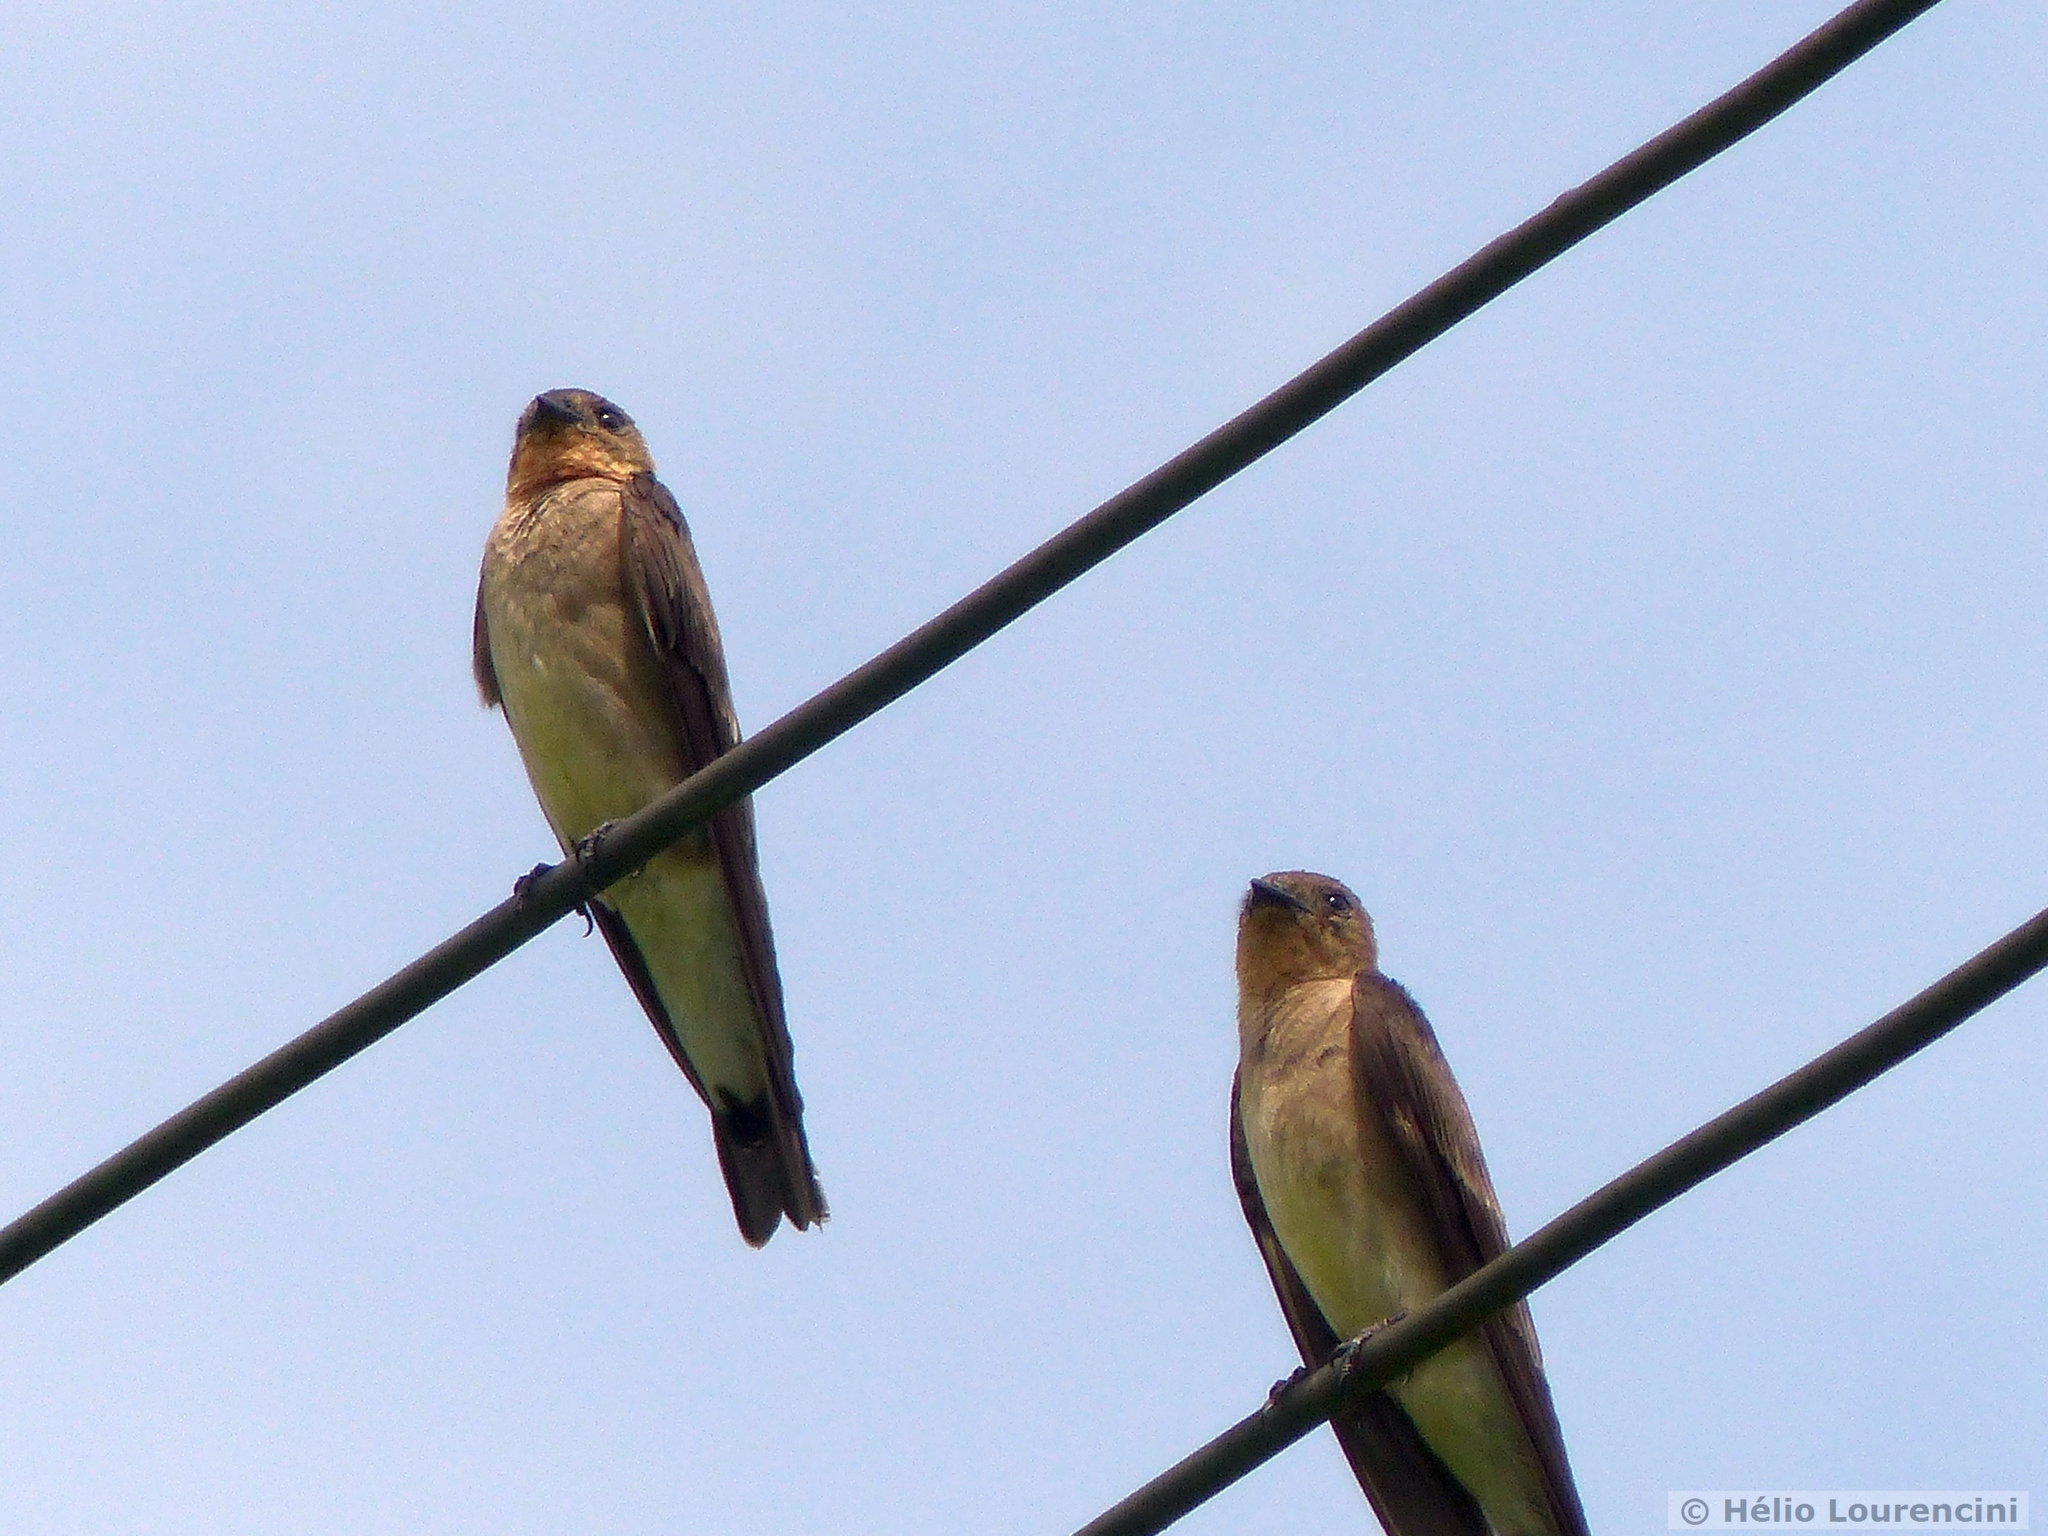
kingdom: Animalia
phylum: Chordata
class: Aves
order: Passeriformes
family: Hirundinidae
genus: Stelgidopteryx
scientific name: Stelgidopteryx ruficollis
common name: Southern rough-winged swallow
